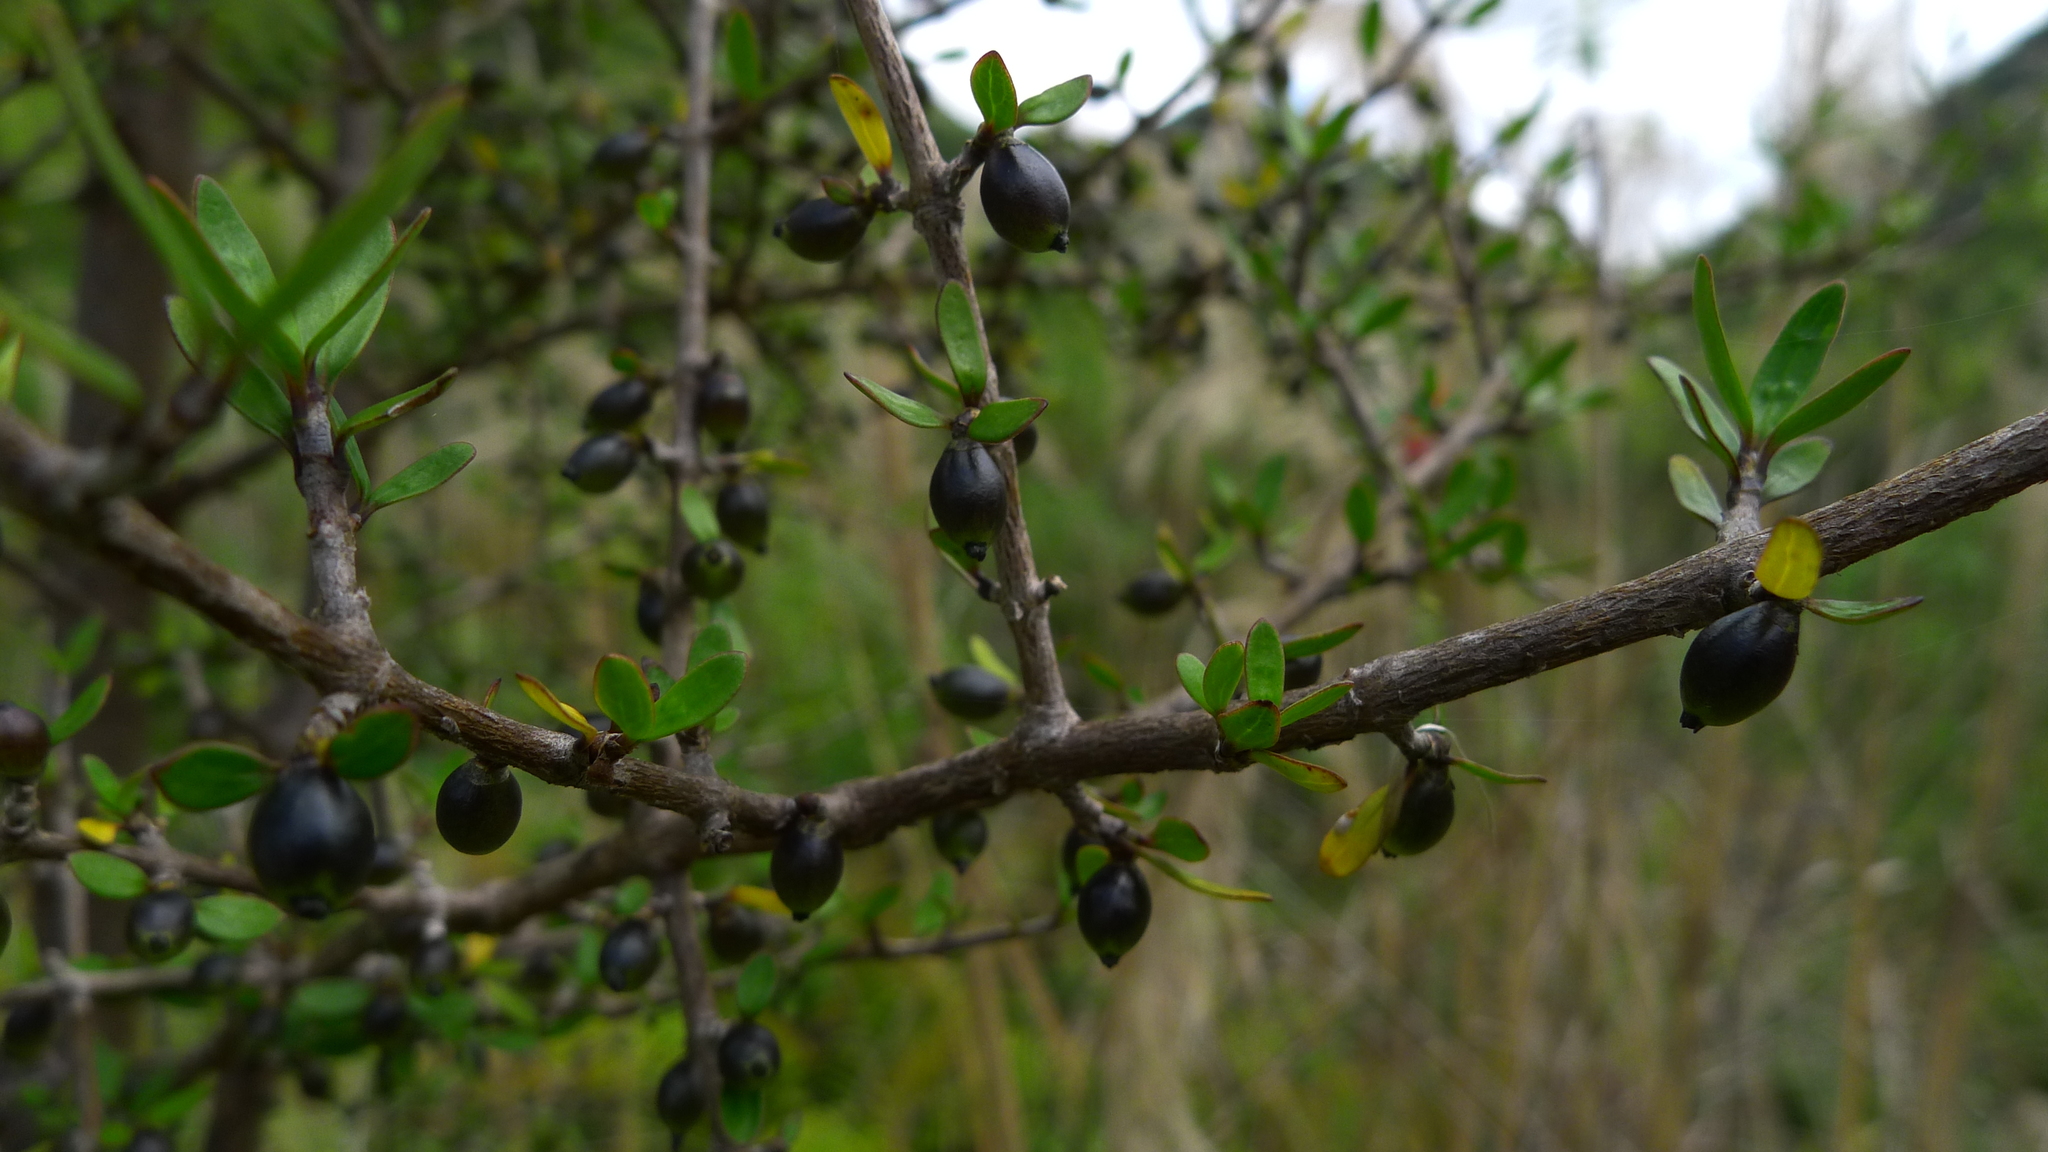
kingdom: Plantae
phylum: Tracheophyta
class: Magnoliopsida
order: Gentianales
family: Rubiaceae
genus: Coprosma
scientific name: Coprosma propinqua
